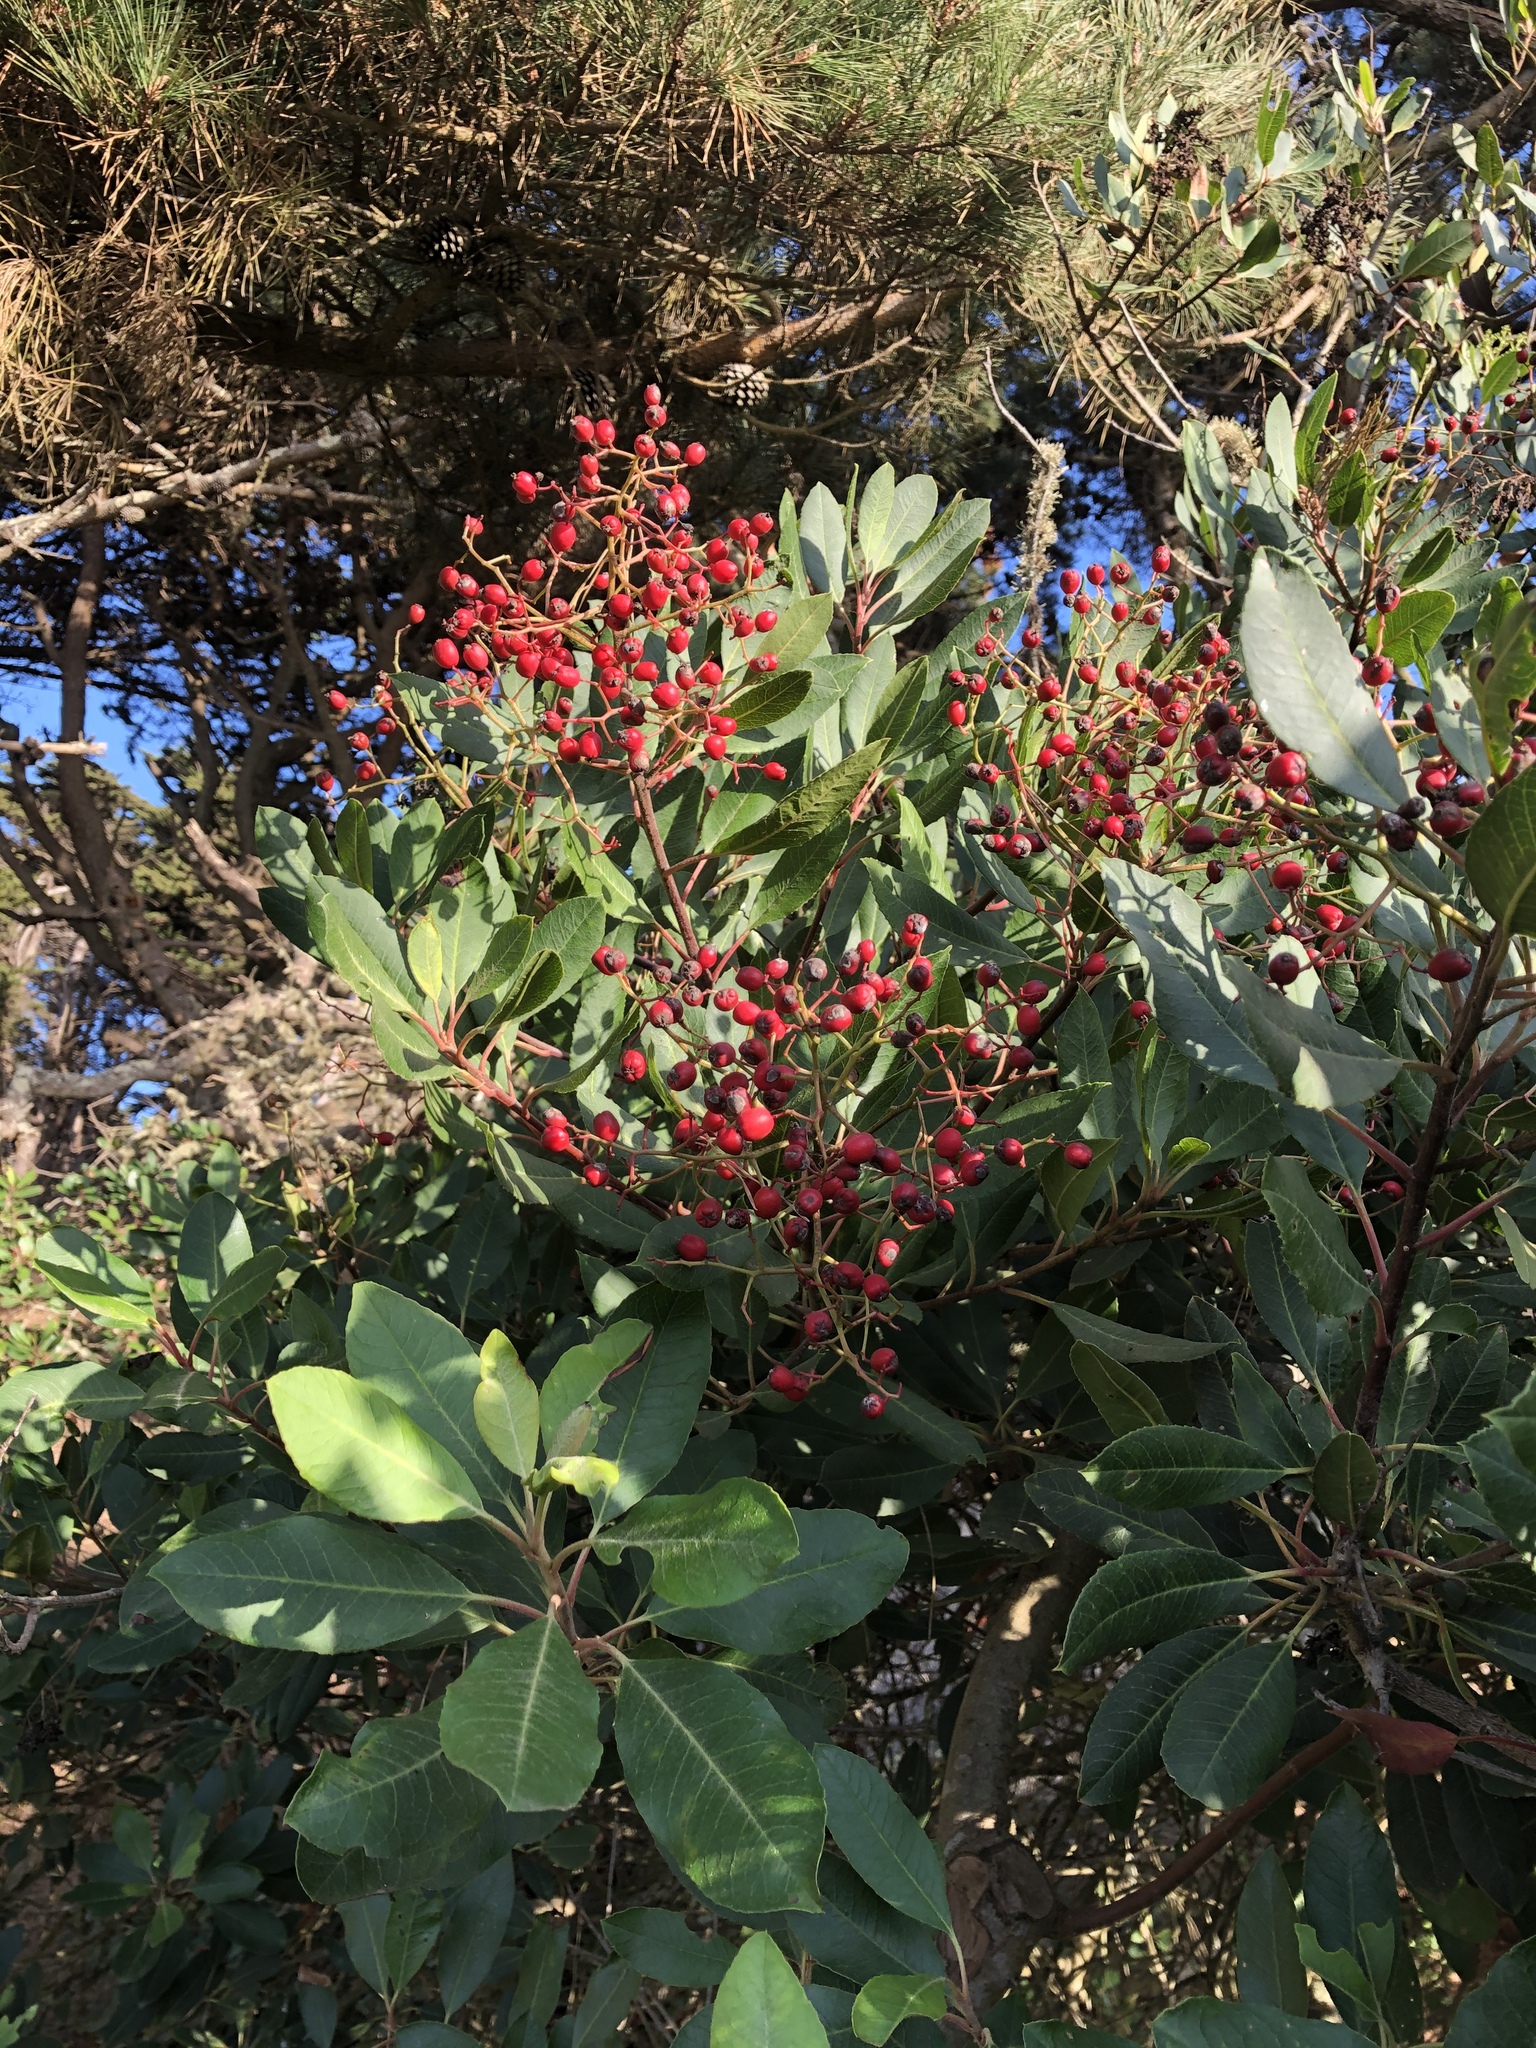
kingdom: Plantae
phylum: Tracheophyta
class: Magnoliopsida
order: Rosales
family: Rosaceae
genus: Heteromeles
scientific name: Heteromeles arbutifolia
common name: California-holly
